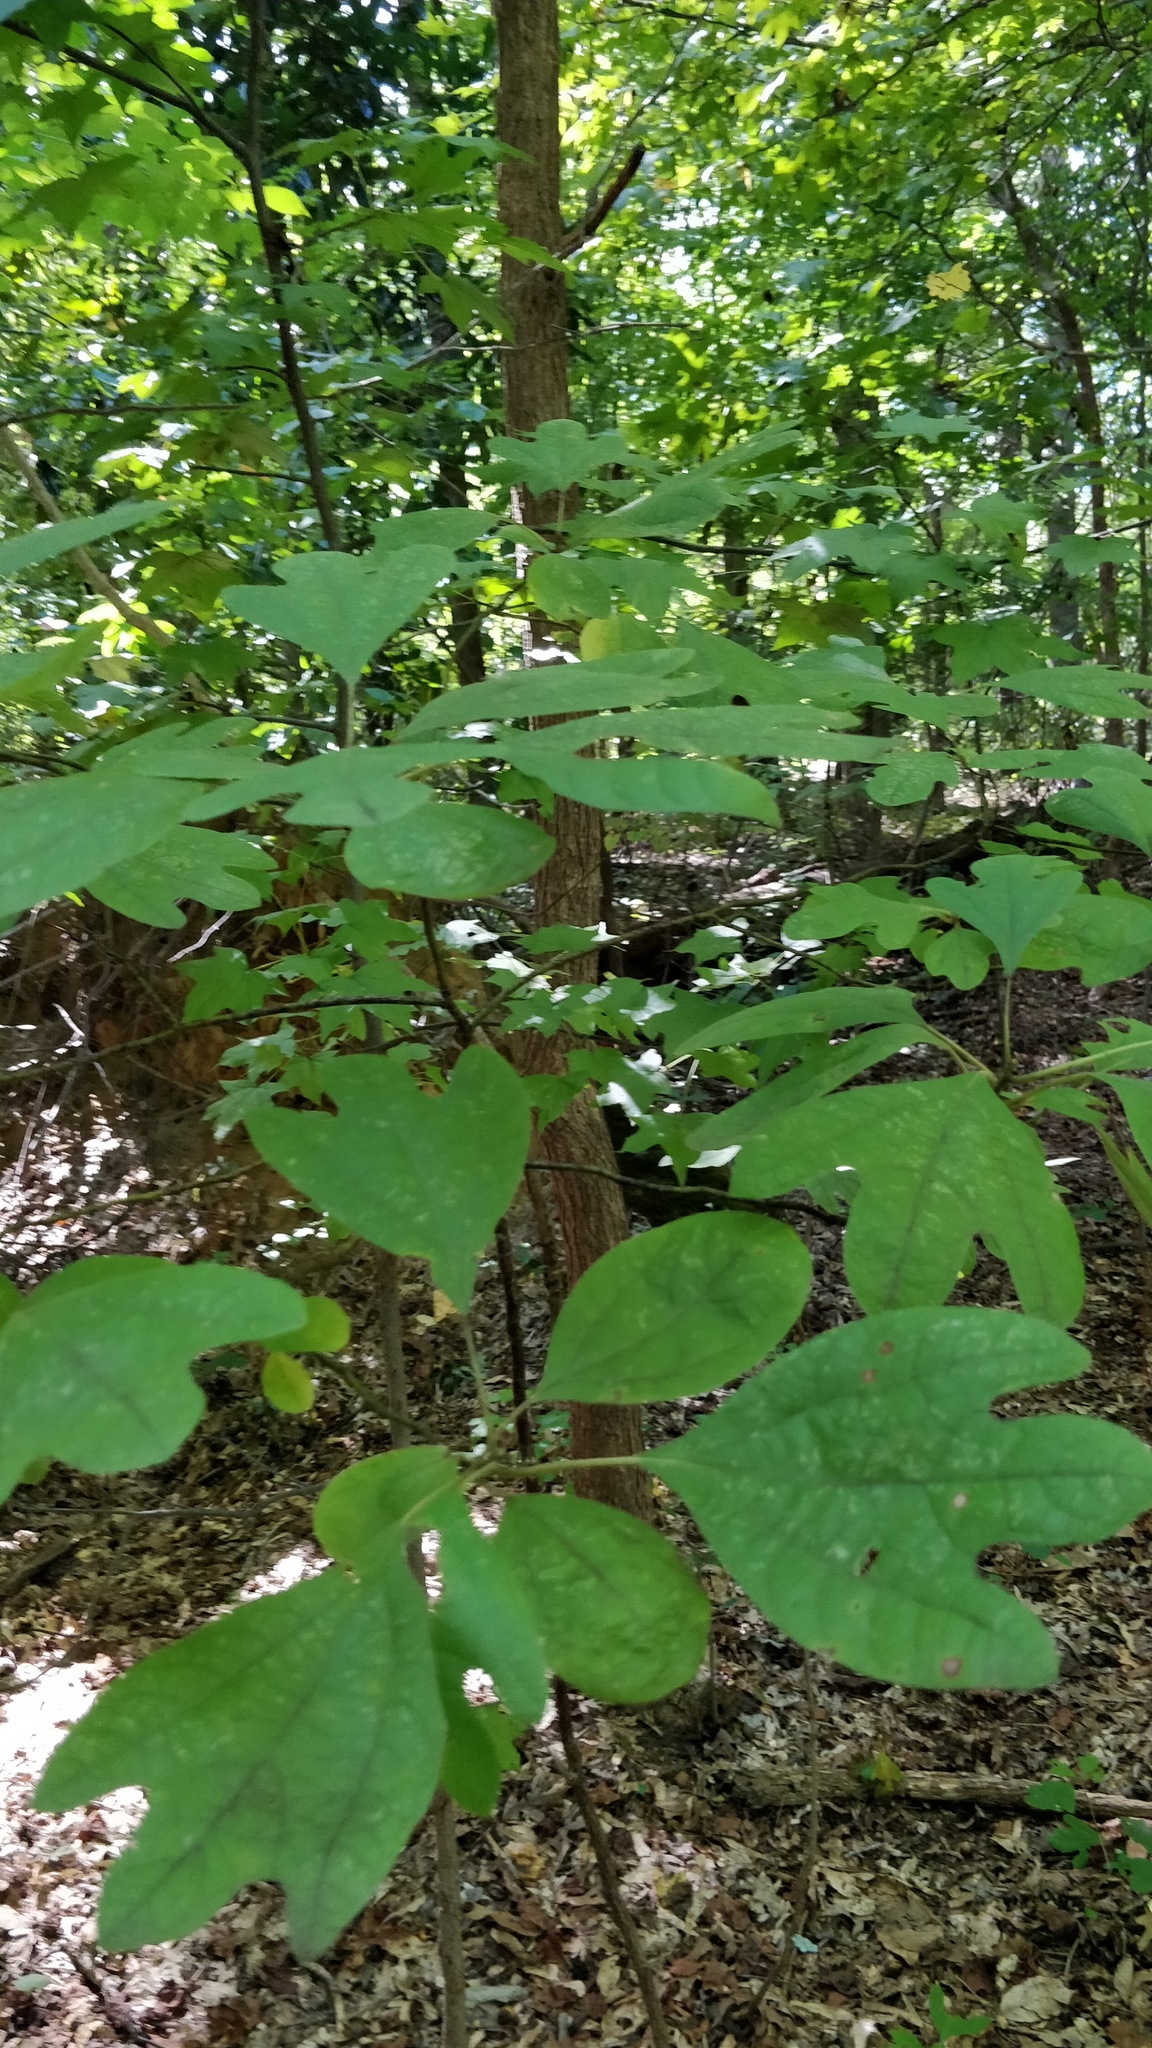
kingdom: Plantae
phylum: Tracheophyta
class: Magnoliopsida
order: Laurales
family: Lauraceae
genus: Sassafras
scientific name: Sassafras albidum
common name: Sassafras
